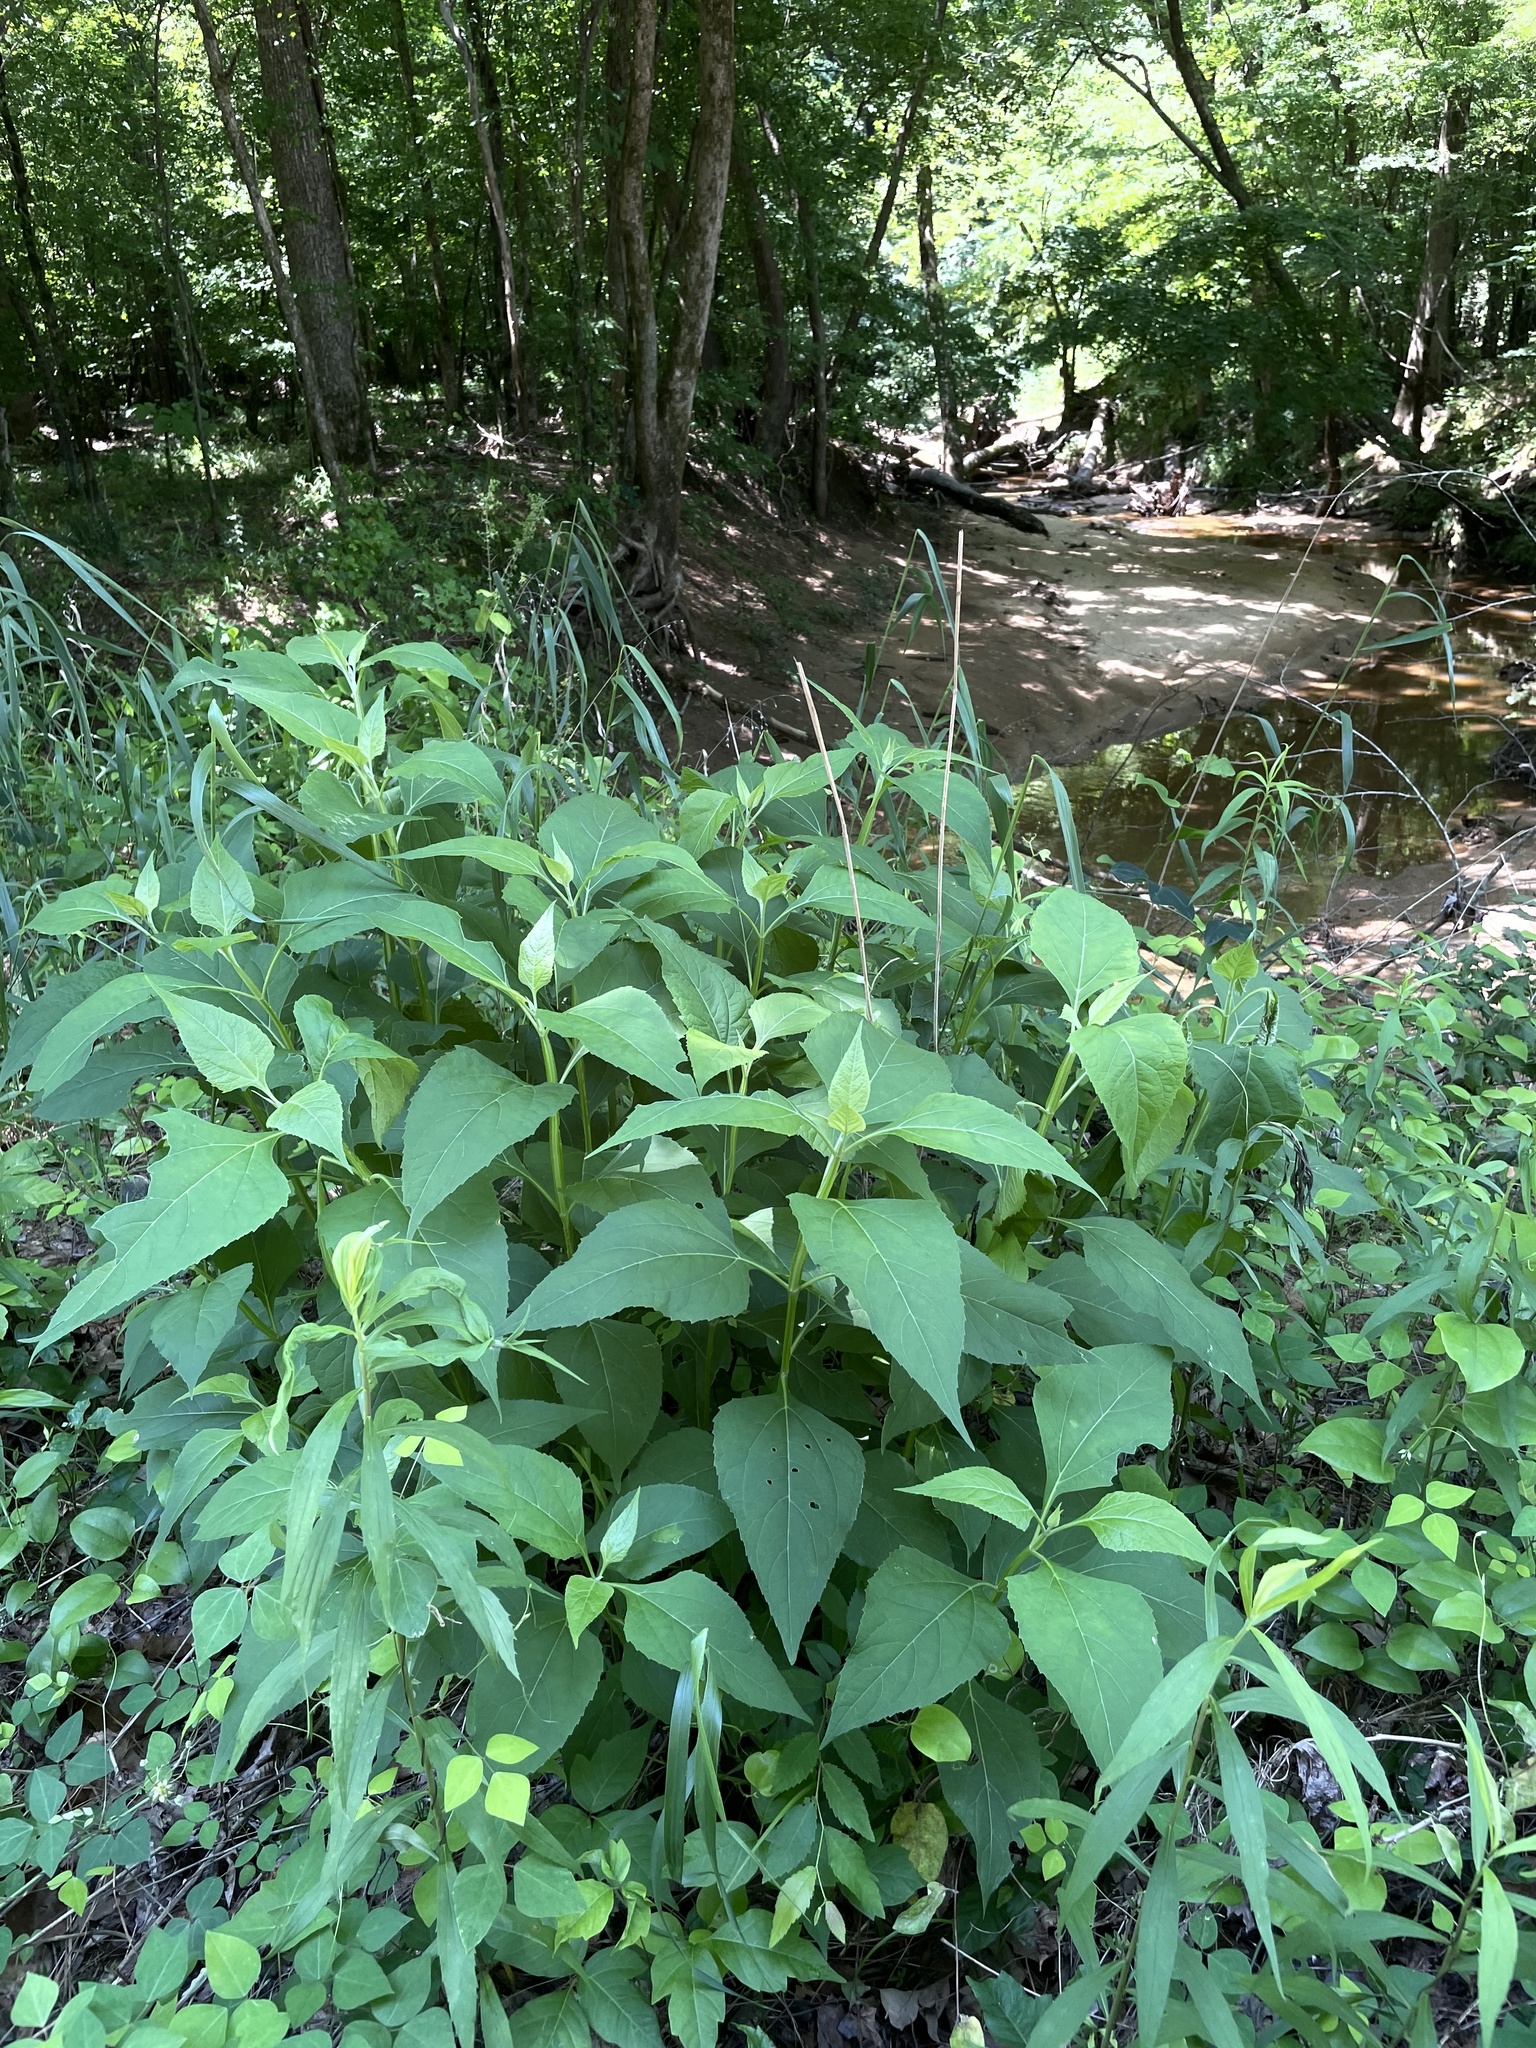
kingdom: Plantae
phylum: Tracheophyta
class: Magnoliopsida
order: Asterales
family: Asteraceae
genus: Verbesina
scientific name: Verbesina occidentalis
